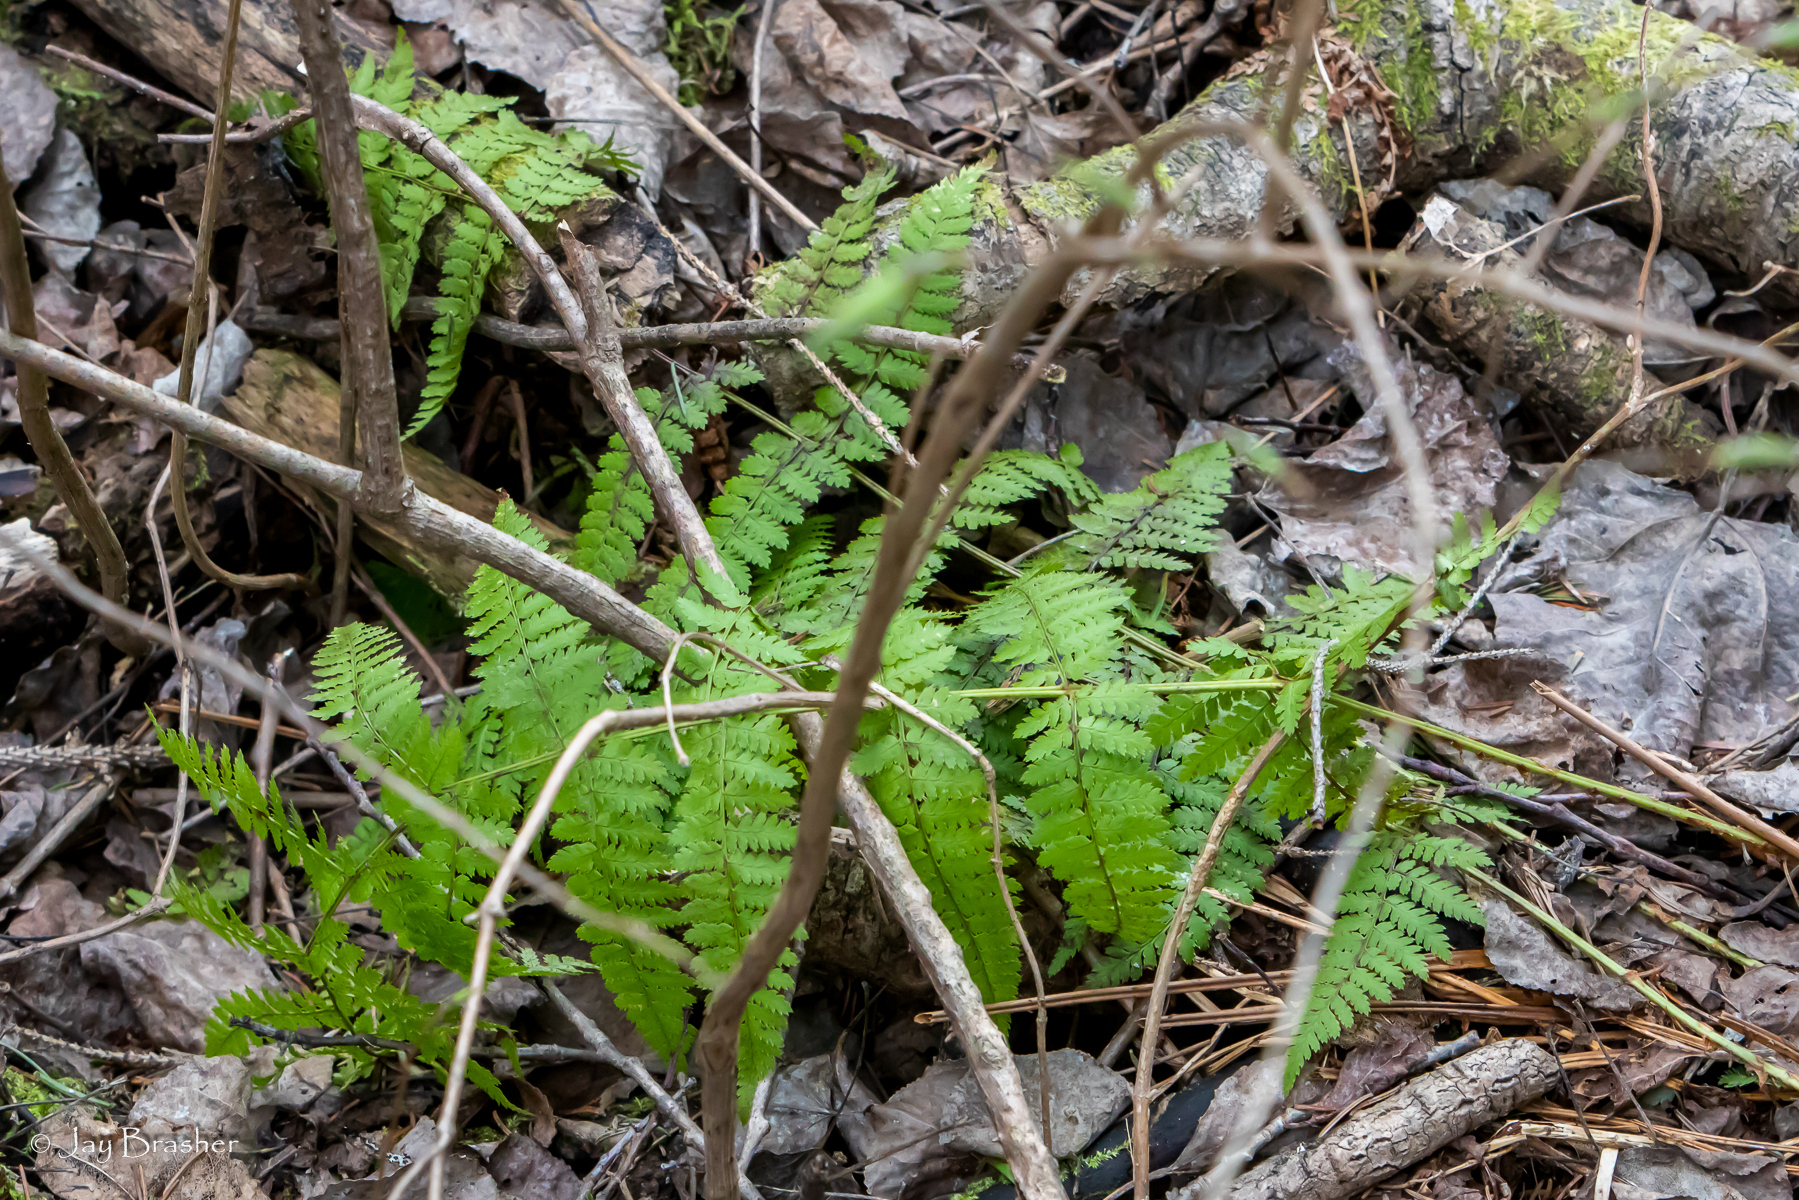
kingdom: Plantae
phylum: Tracheophyta
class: Polypodiopsida
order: Polypodiales
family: Dryopteridaceae
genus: Dryopteris
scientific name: Dryopteris intermedia
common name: Evergreen wood fern
